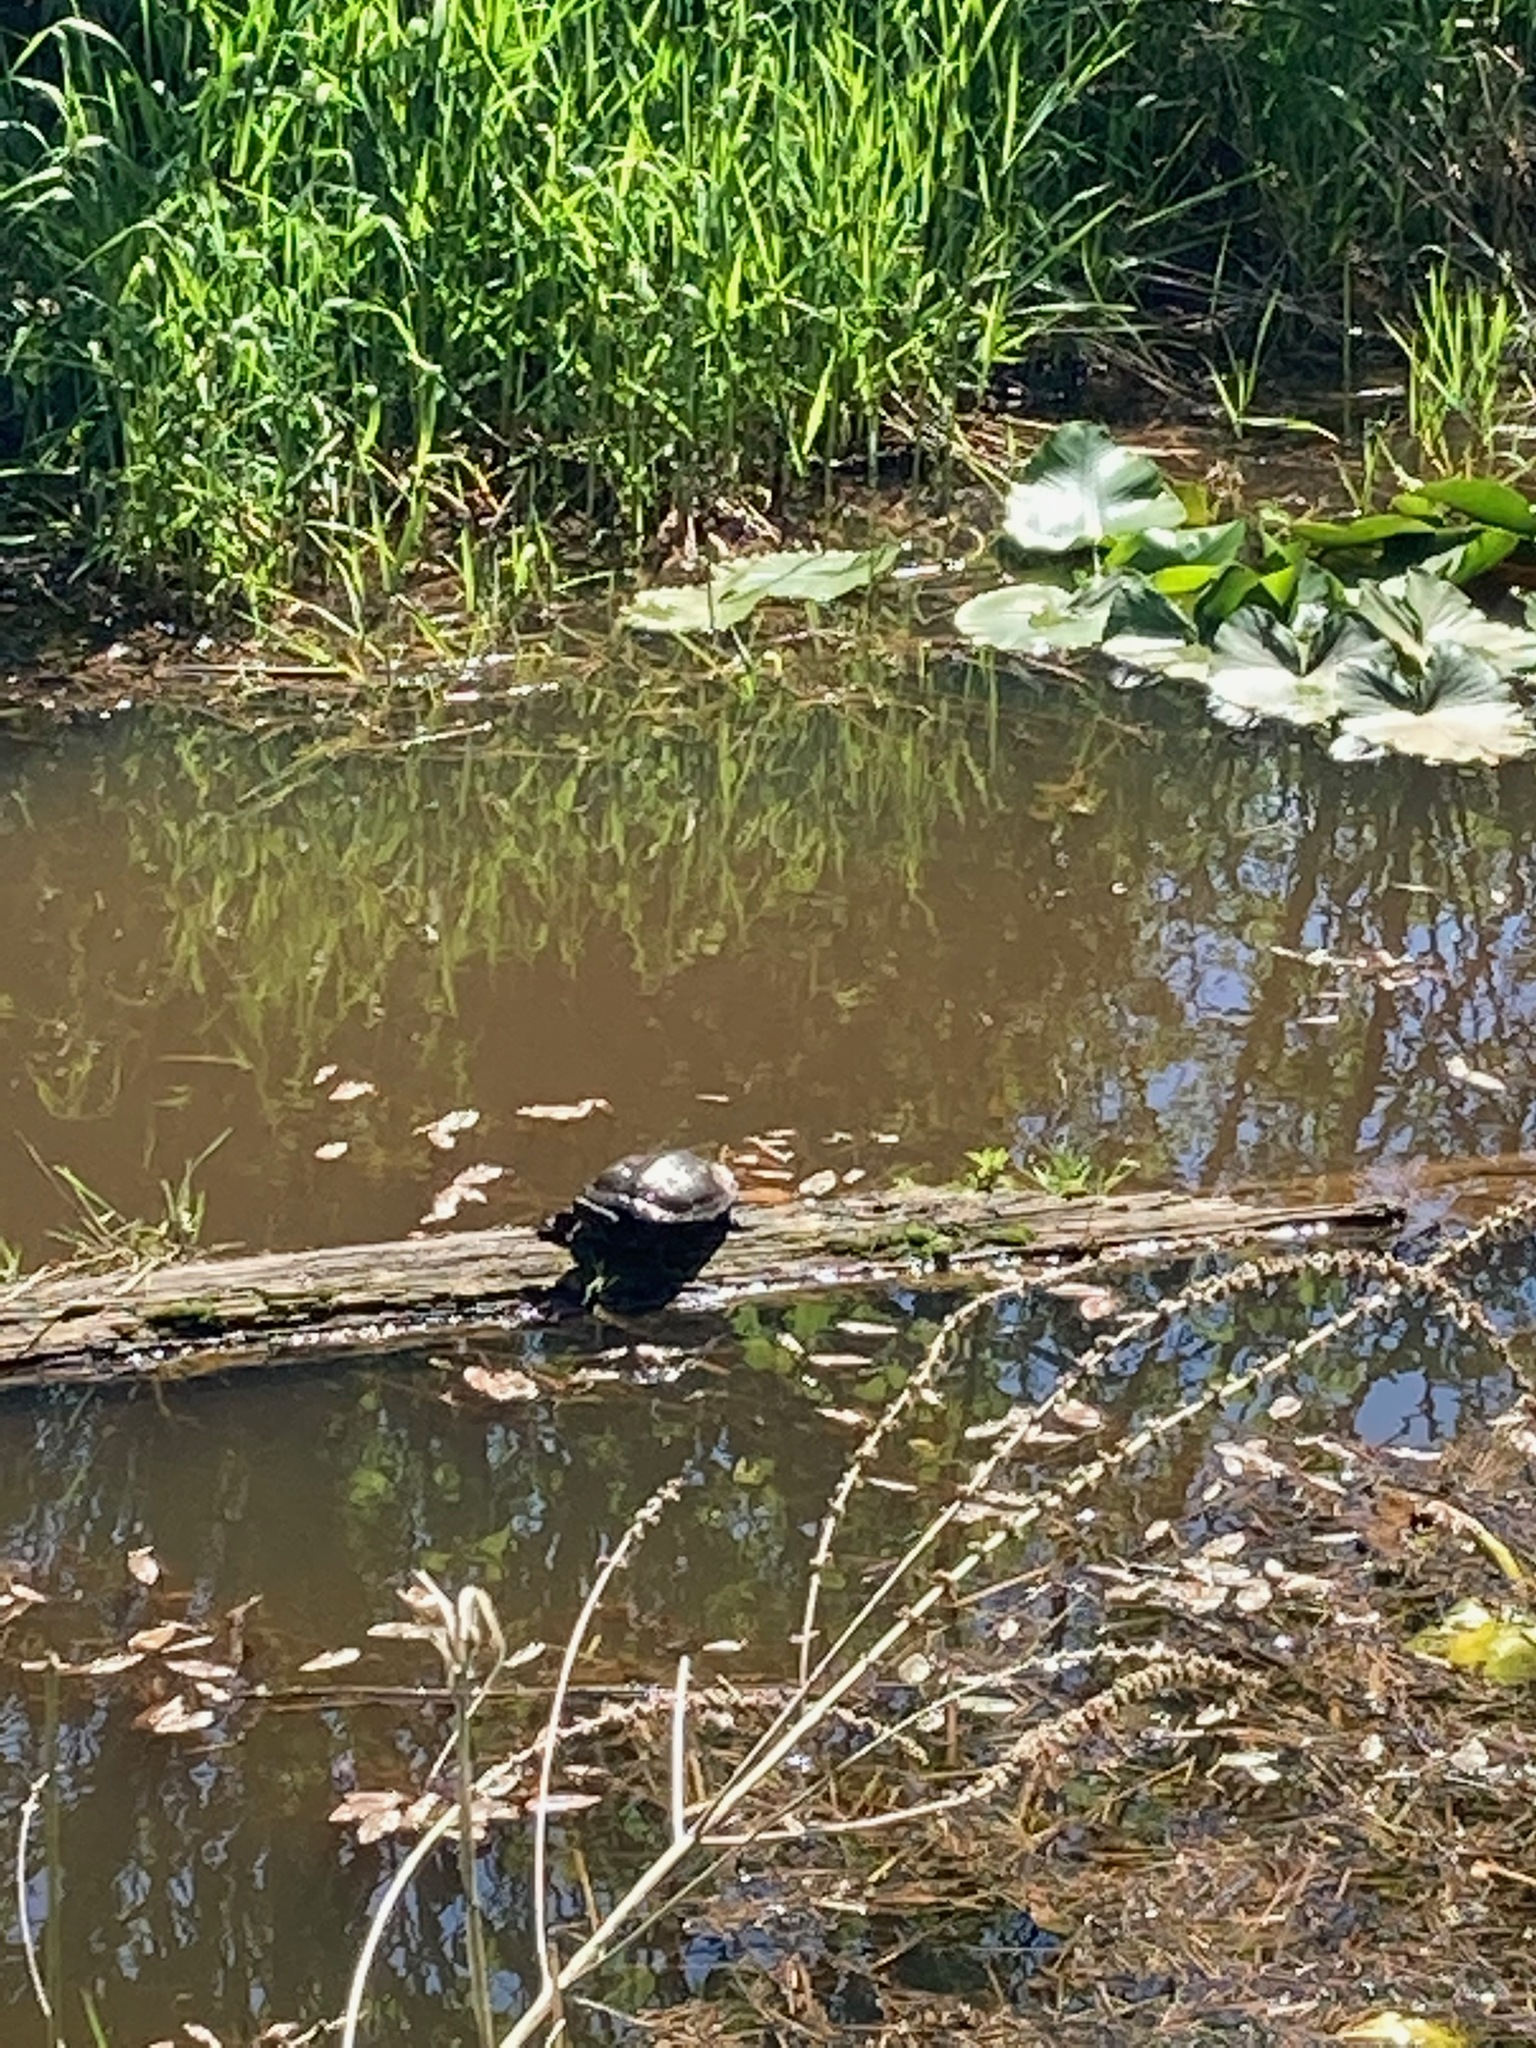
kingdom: Animalia
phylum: Chordata
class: Testudines
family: Emydidae
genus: Trachemys
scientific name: Trachemys scripta
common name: Slider
